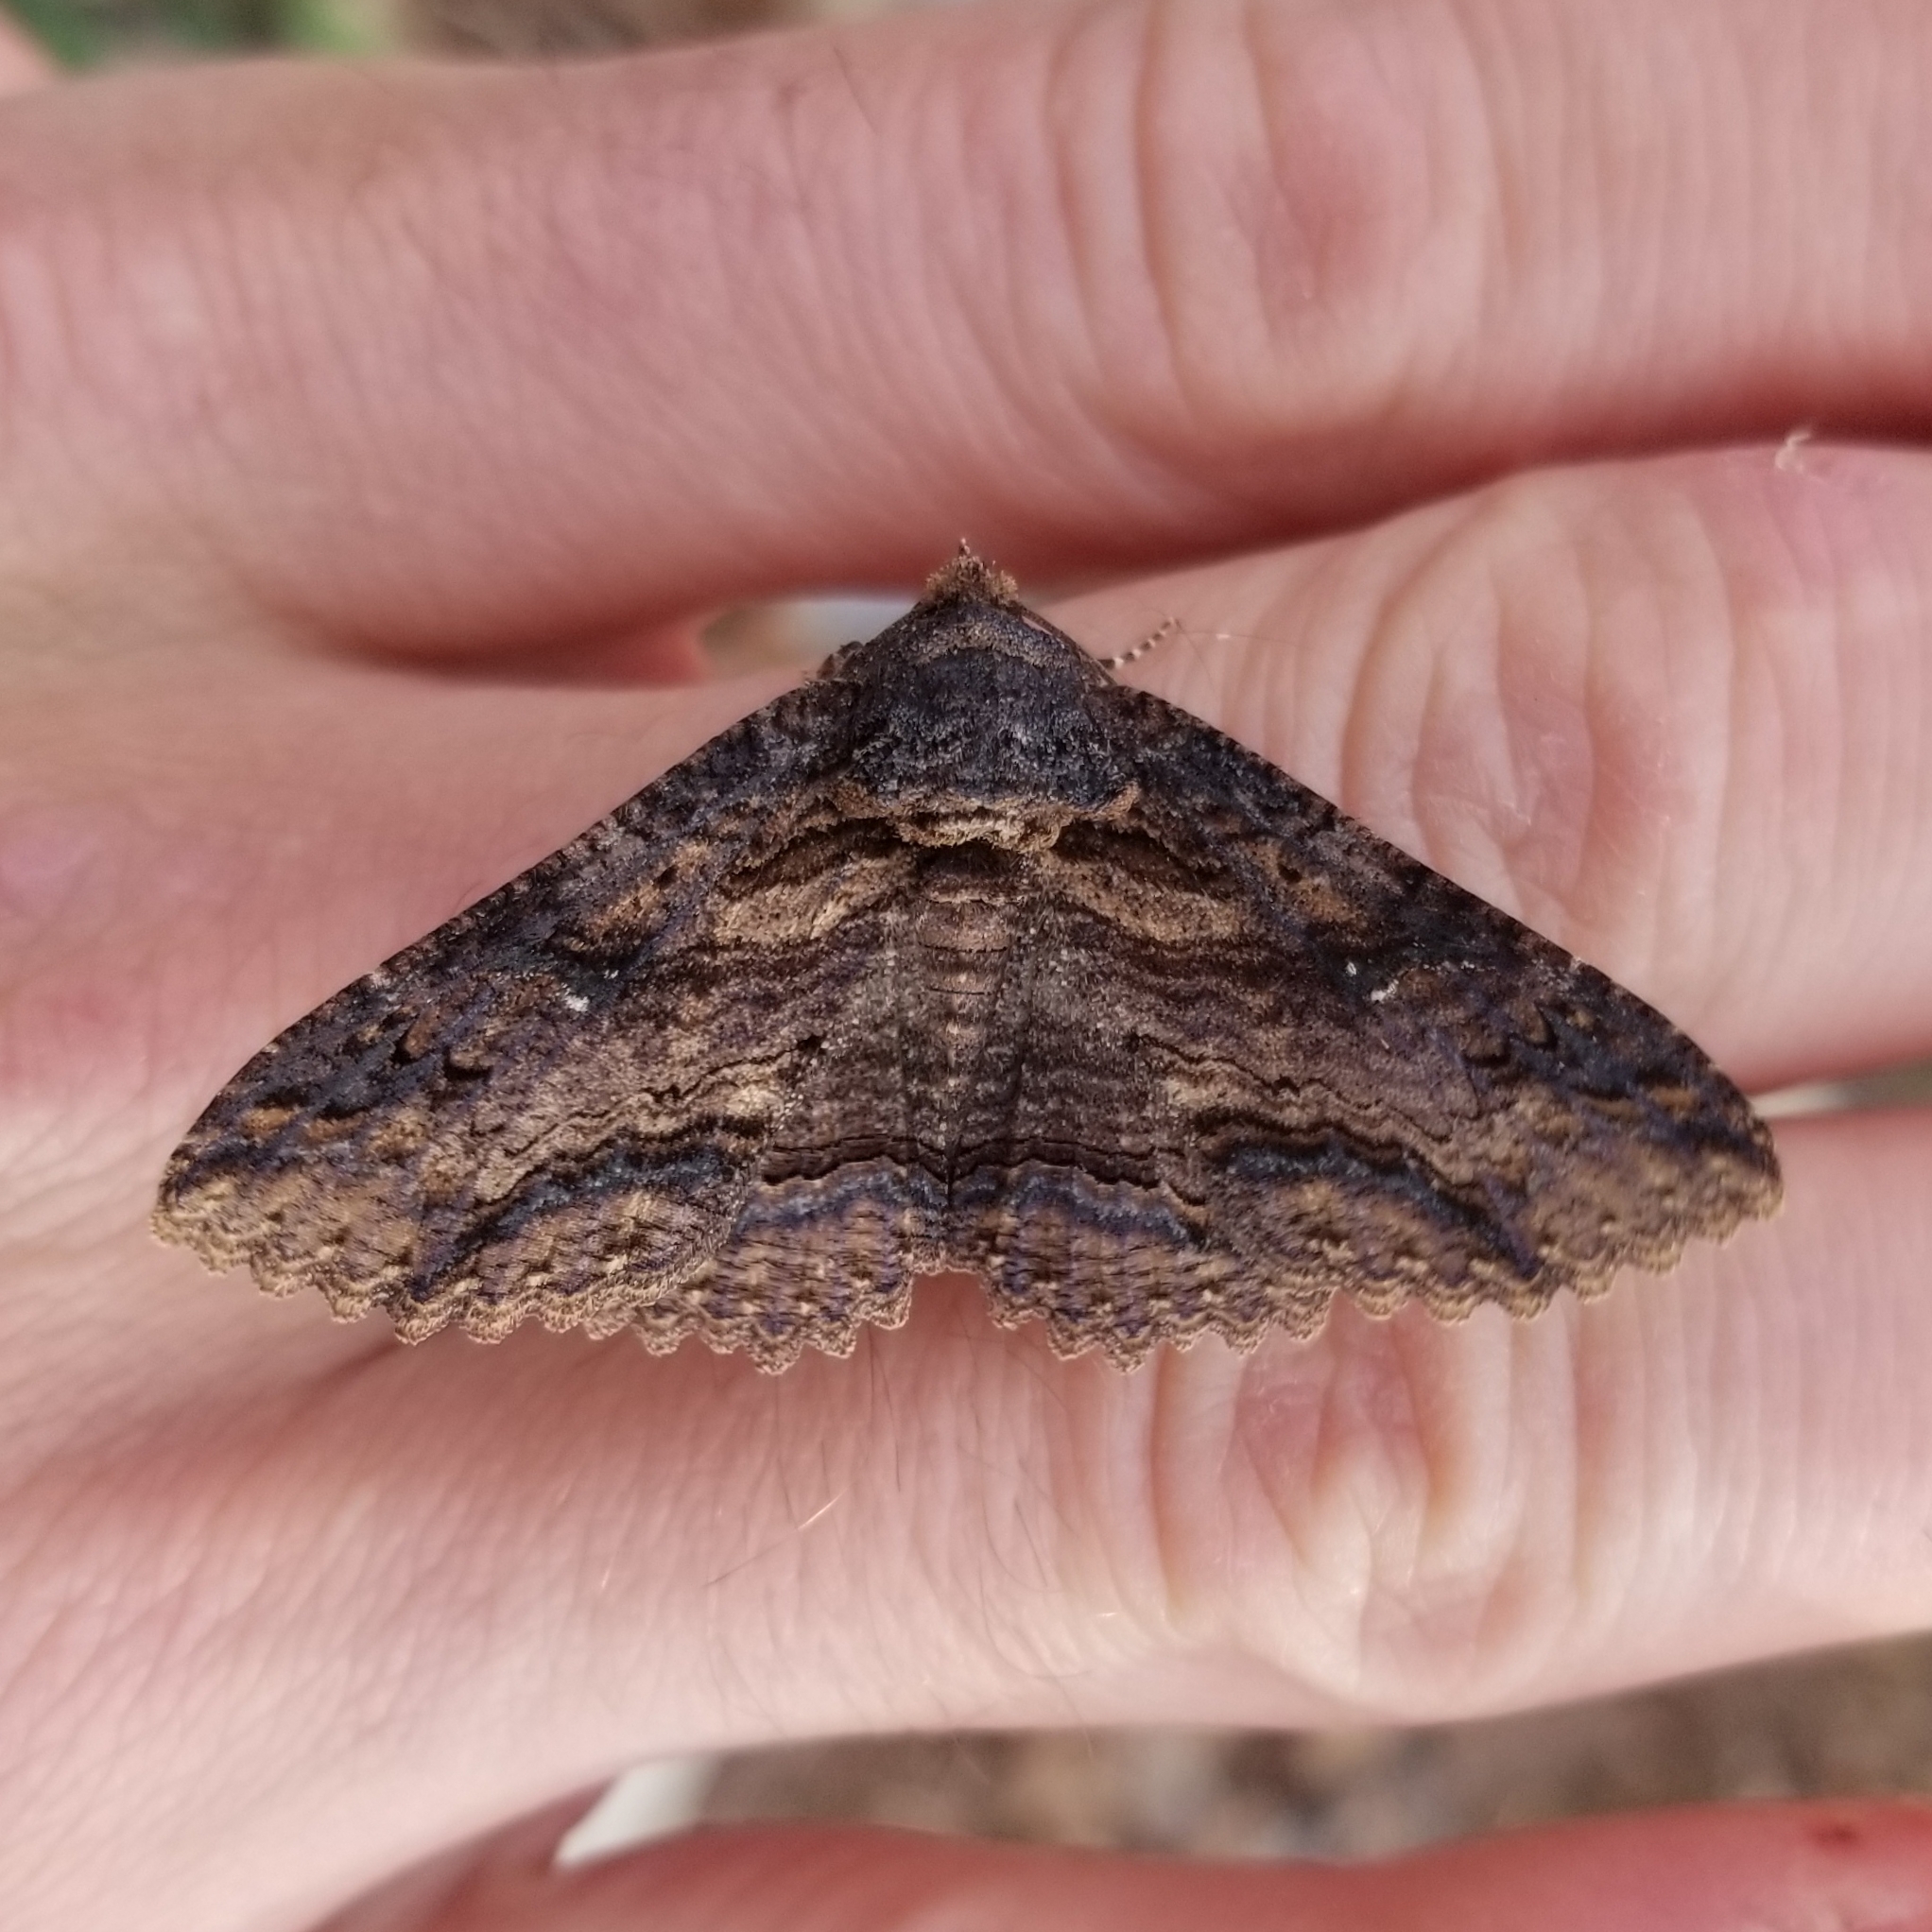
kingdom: Animalia
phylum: Arthropoda
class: Insecta
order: Lepidoptera
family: Erebidae
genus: Zale
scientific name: Zale lunata
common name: Lunate zale moth
